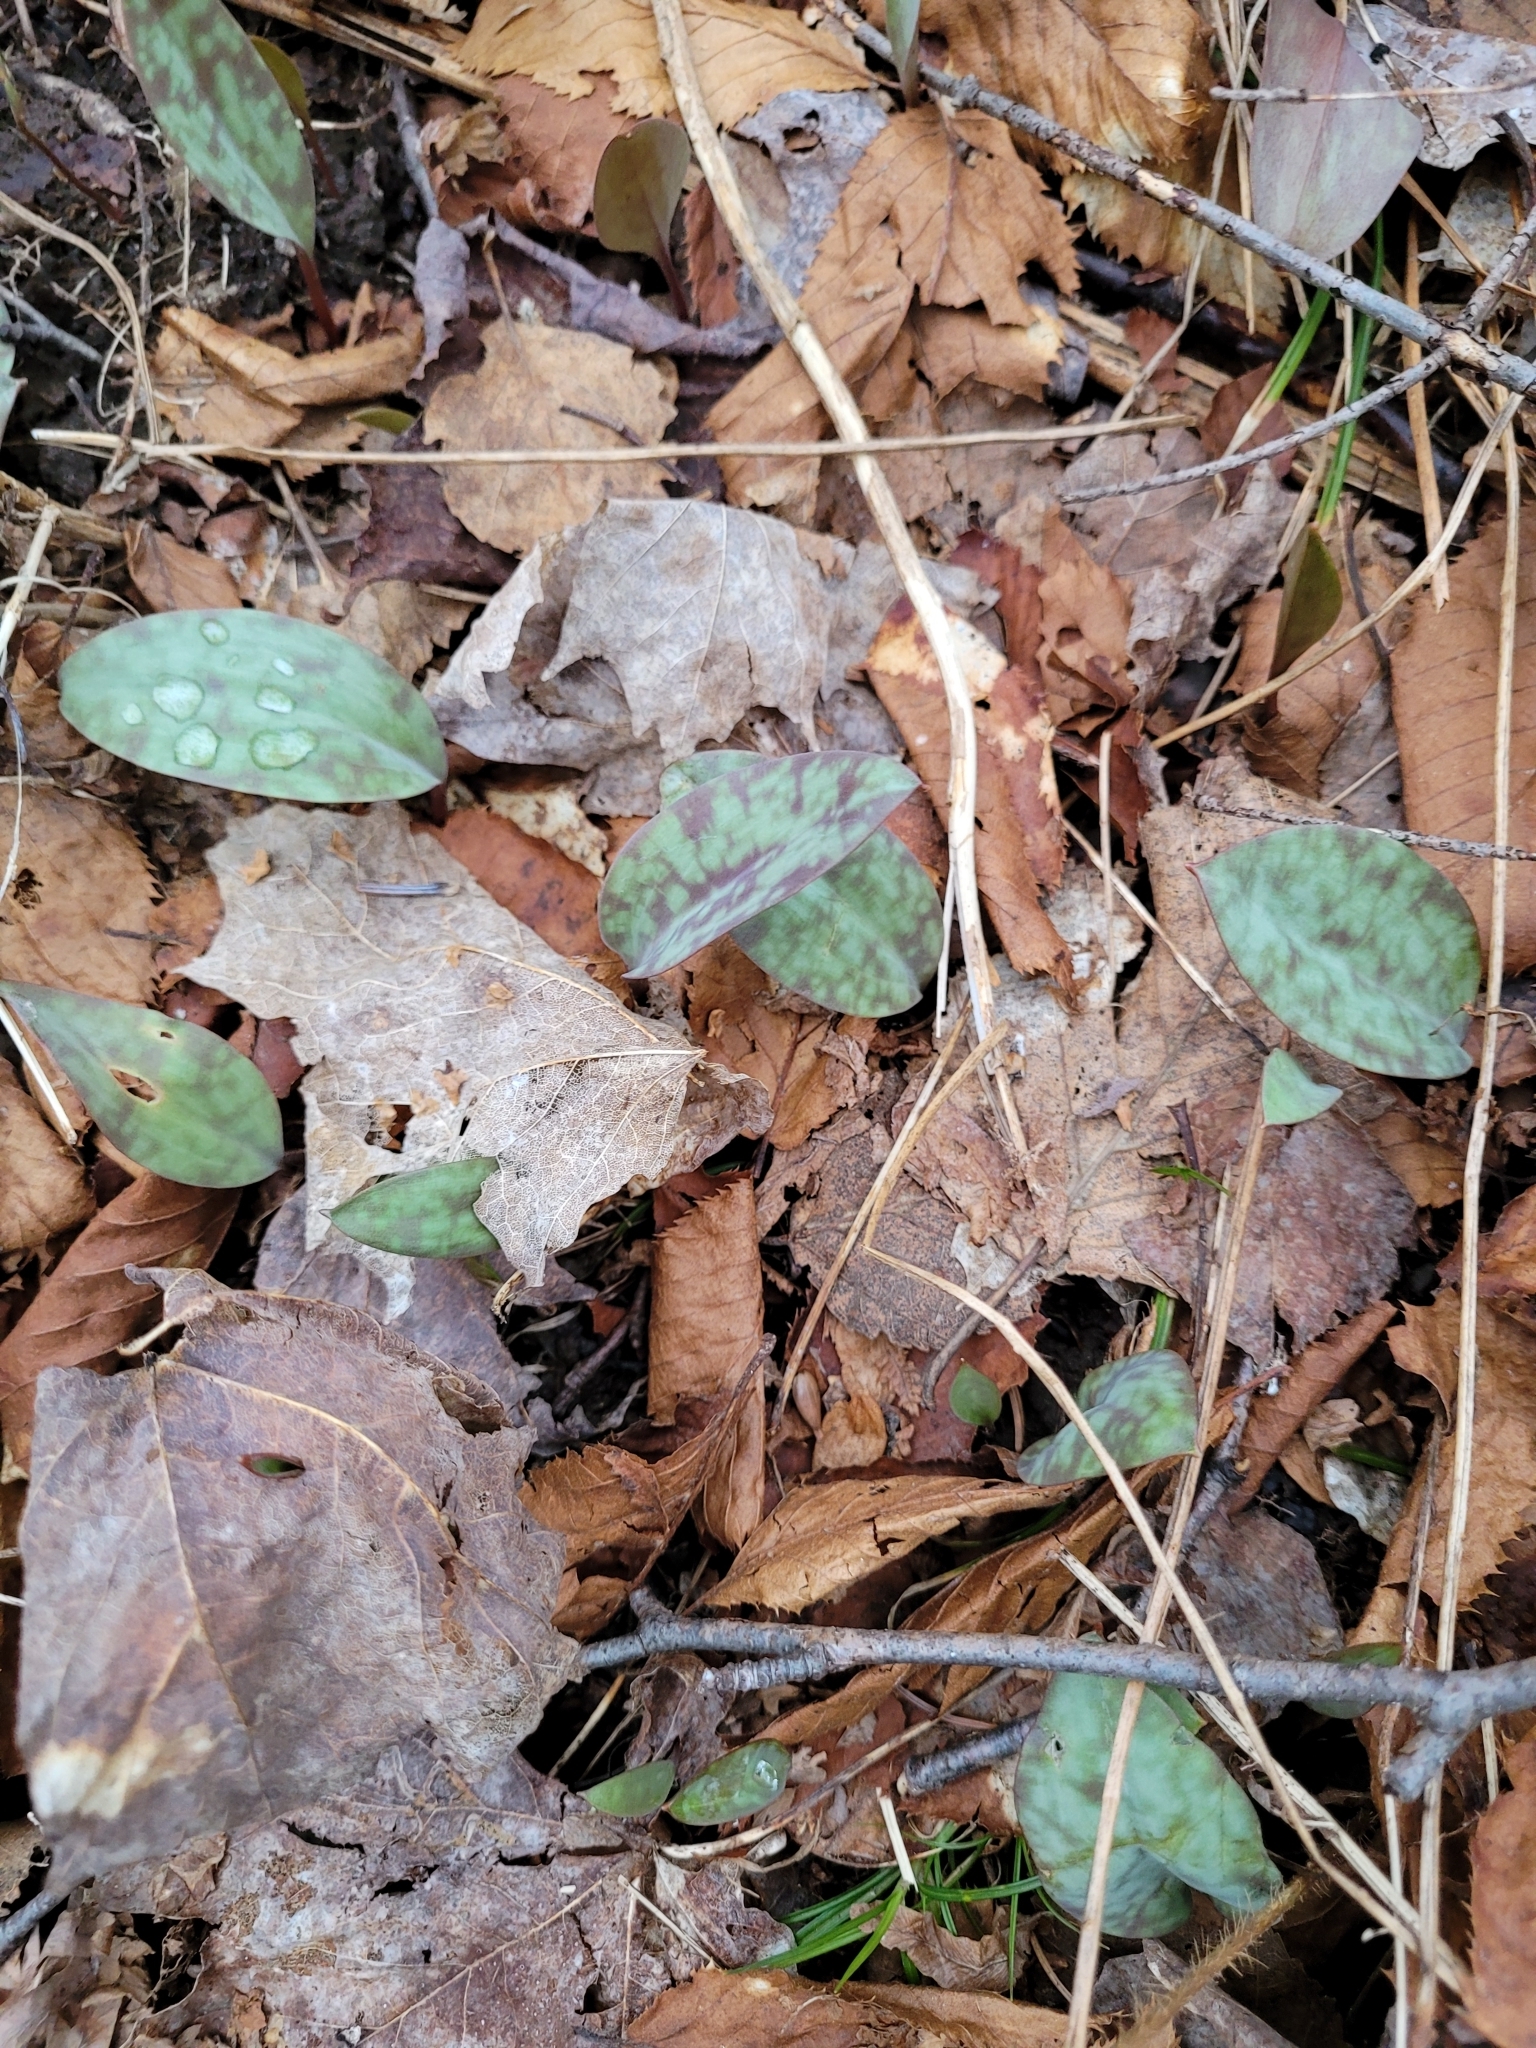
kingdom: Plantae
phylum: Tracheophyta
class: Liliopsida
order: Liliales
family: Liliaceae
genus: Erythronium
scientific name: Erythronium americanum
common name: Yellow adder's-tongue
